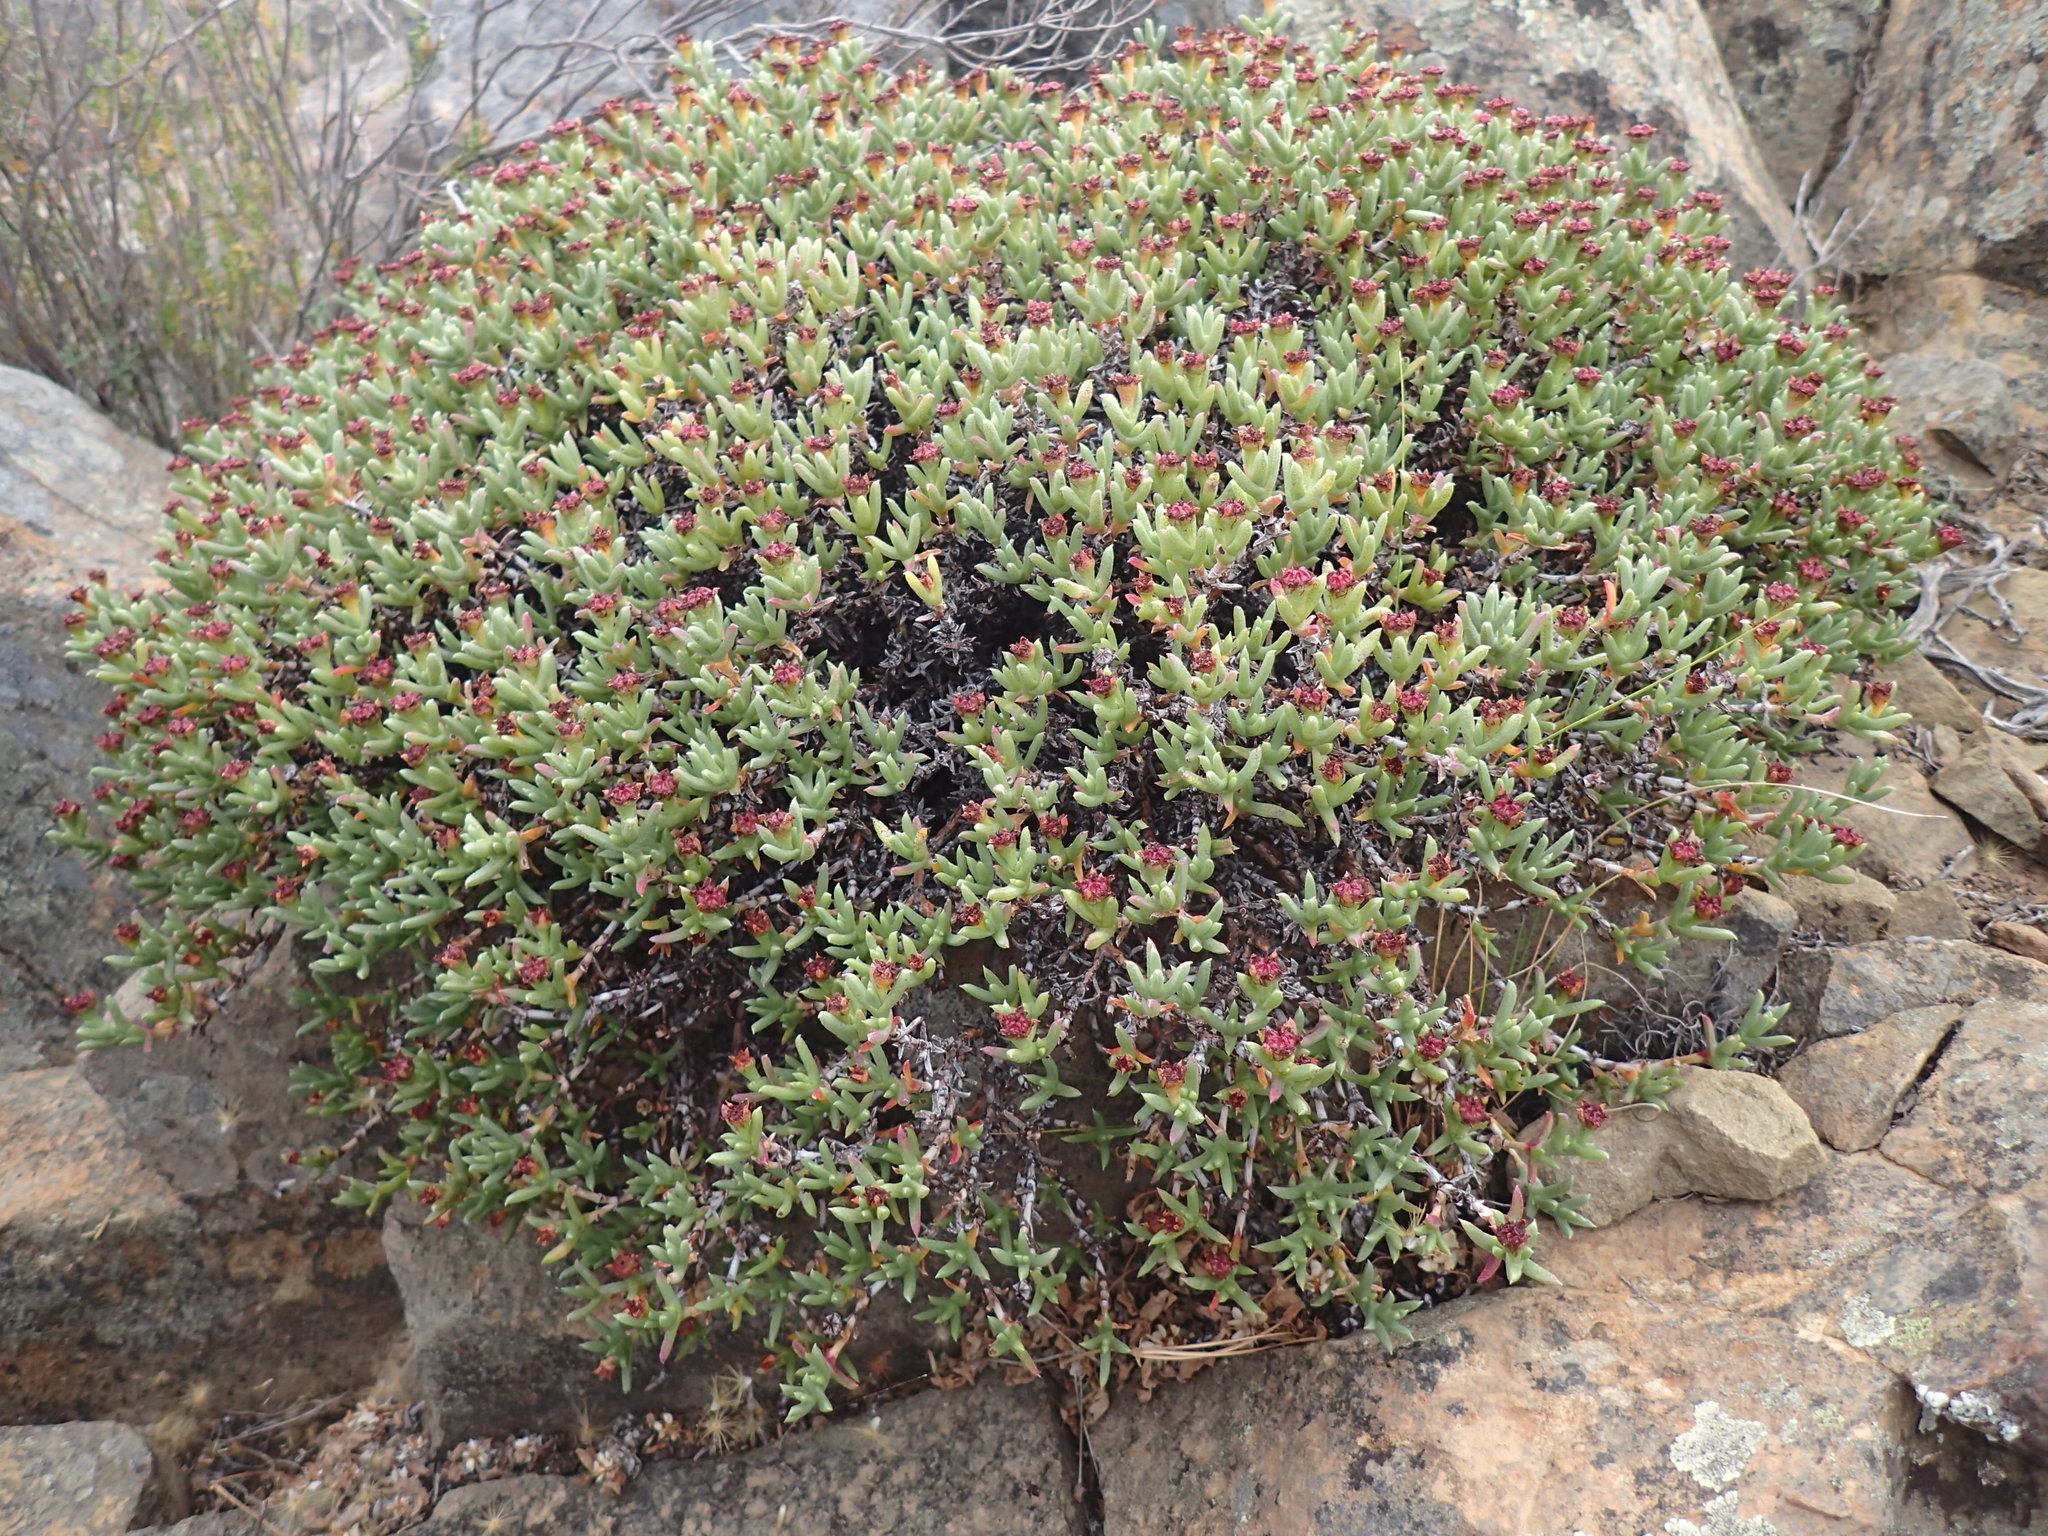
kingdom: Plantae
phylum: Tracheophyta
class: Magnoliopsida
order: Caryophyllales
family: Aizoaceae
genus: Ruschia
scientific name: Ruschia punctulata
